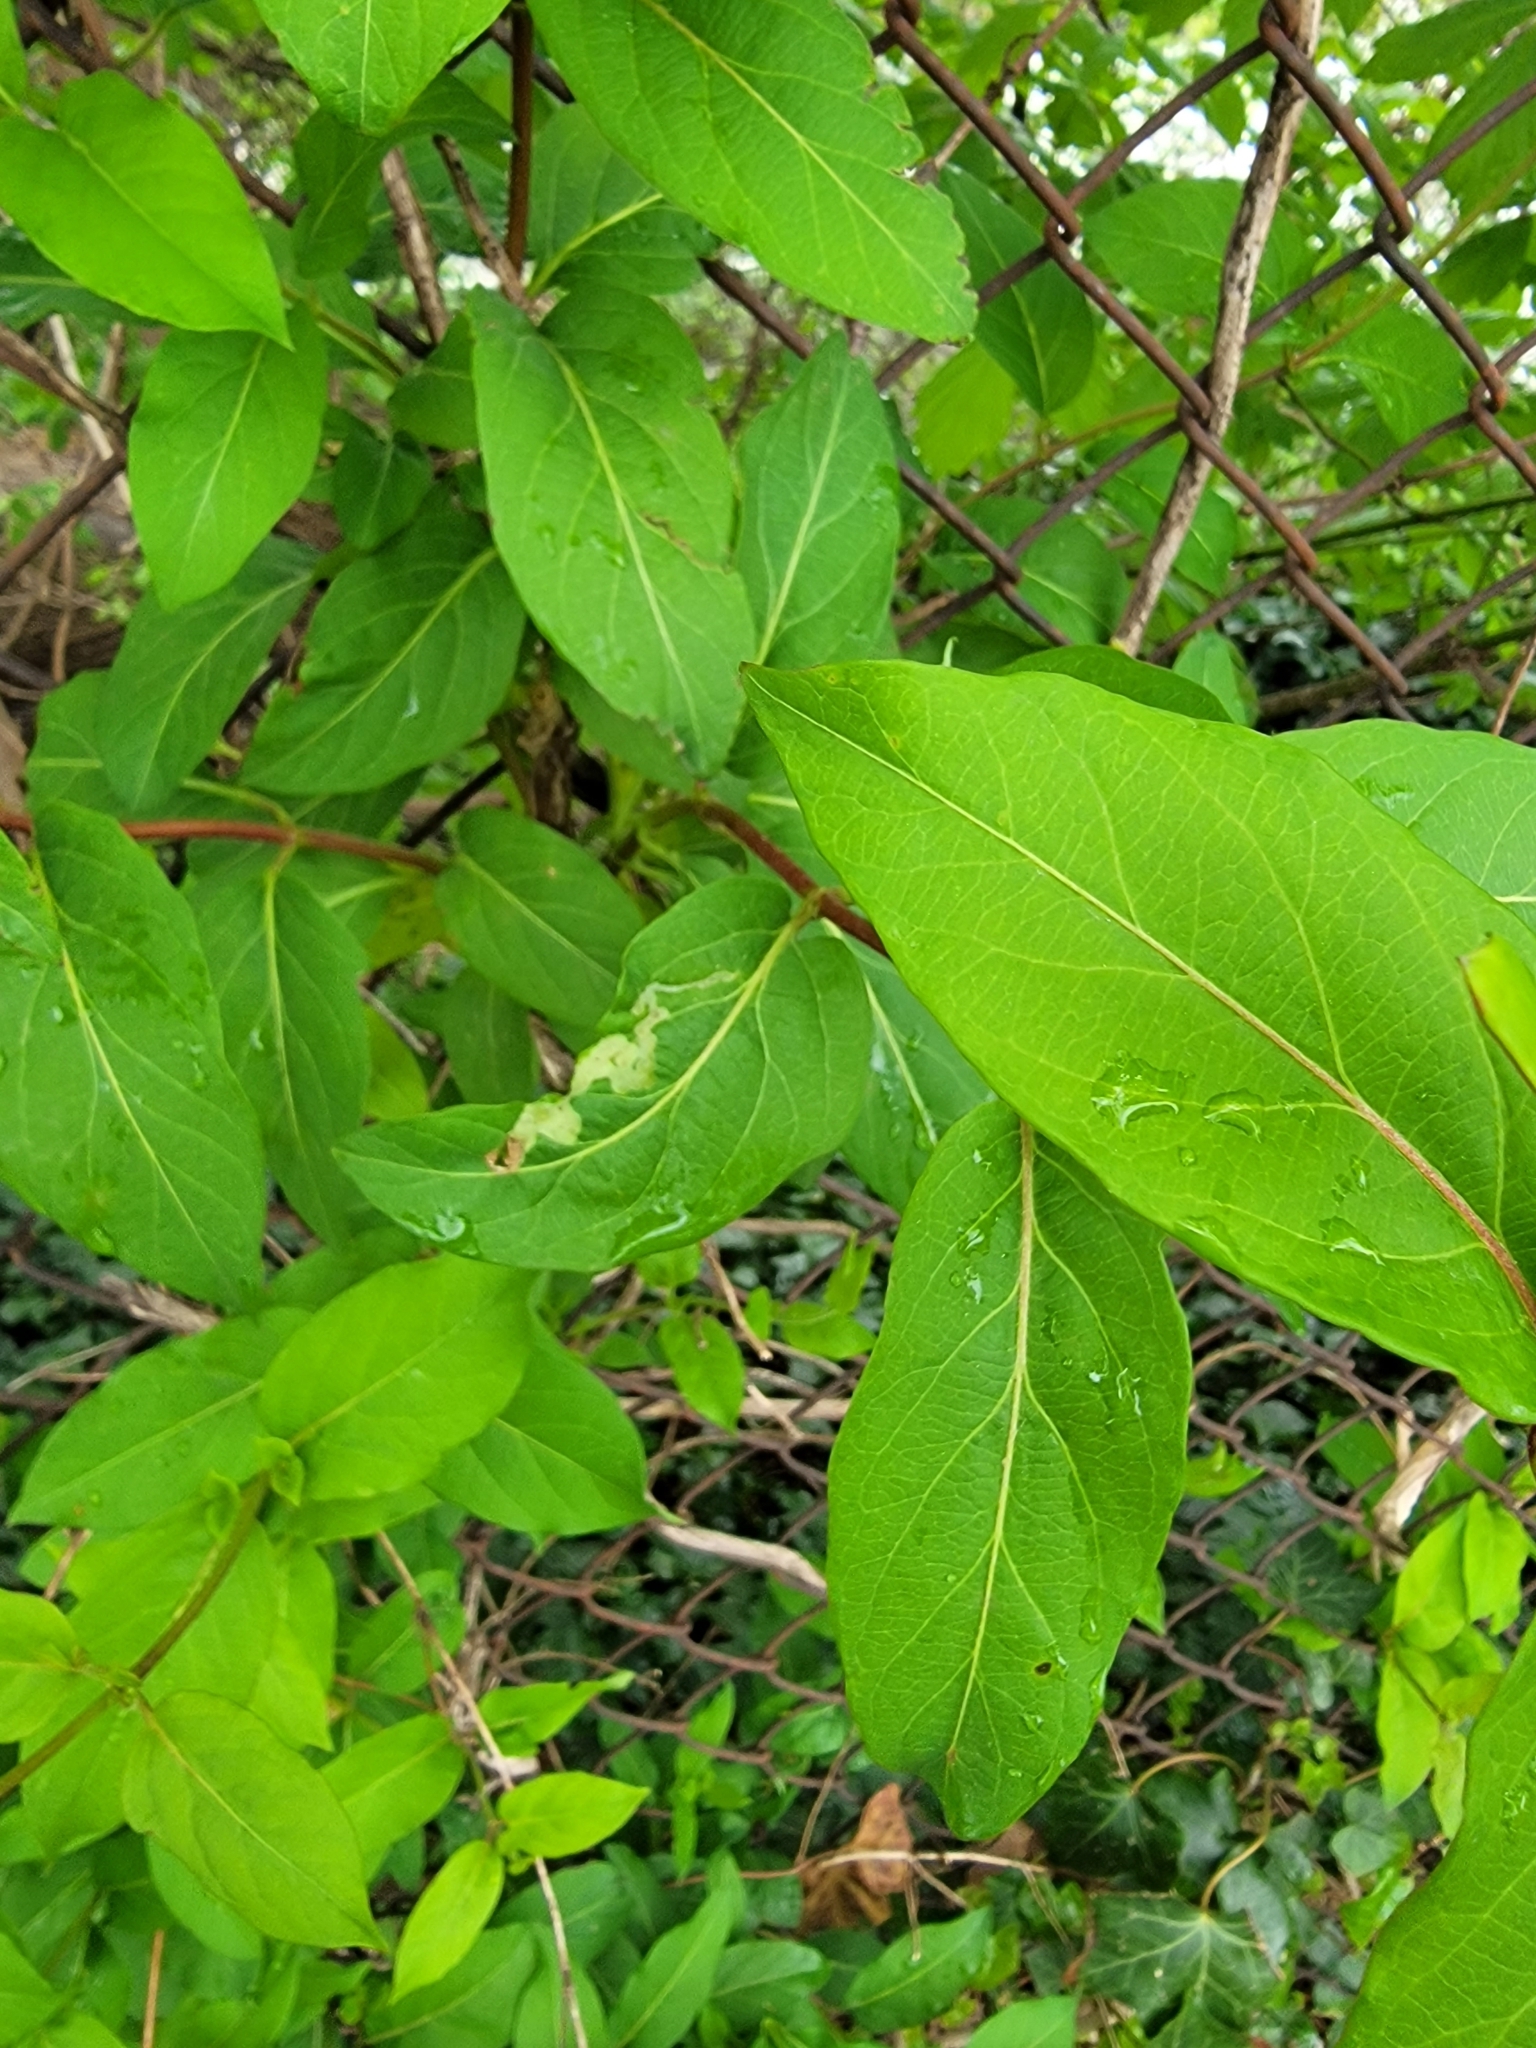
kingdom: Plantae
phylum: Tracheophyta
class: Magnoliopsida
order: Dipsacales
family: Caprifoliaceae
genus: Lonicera
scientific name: Lonicera japonica
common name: Japanese honeysuckle
